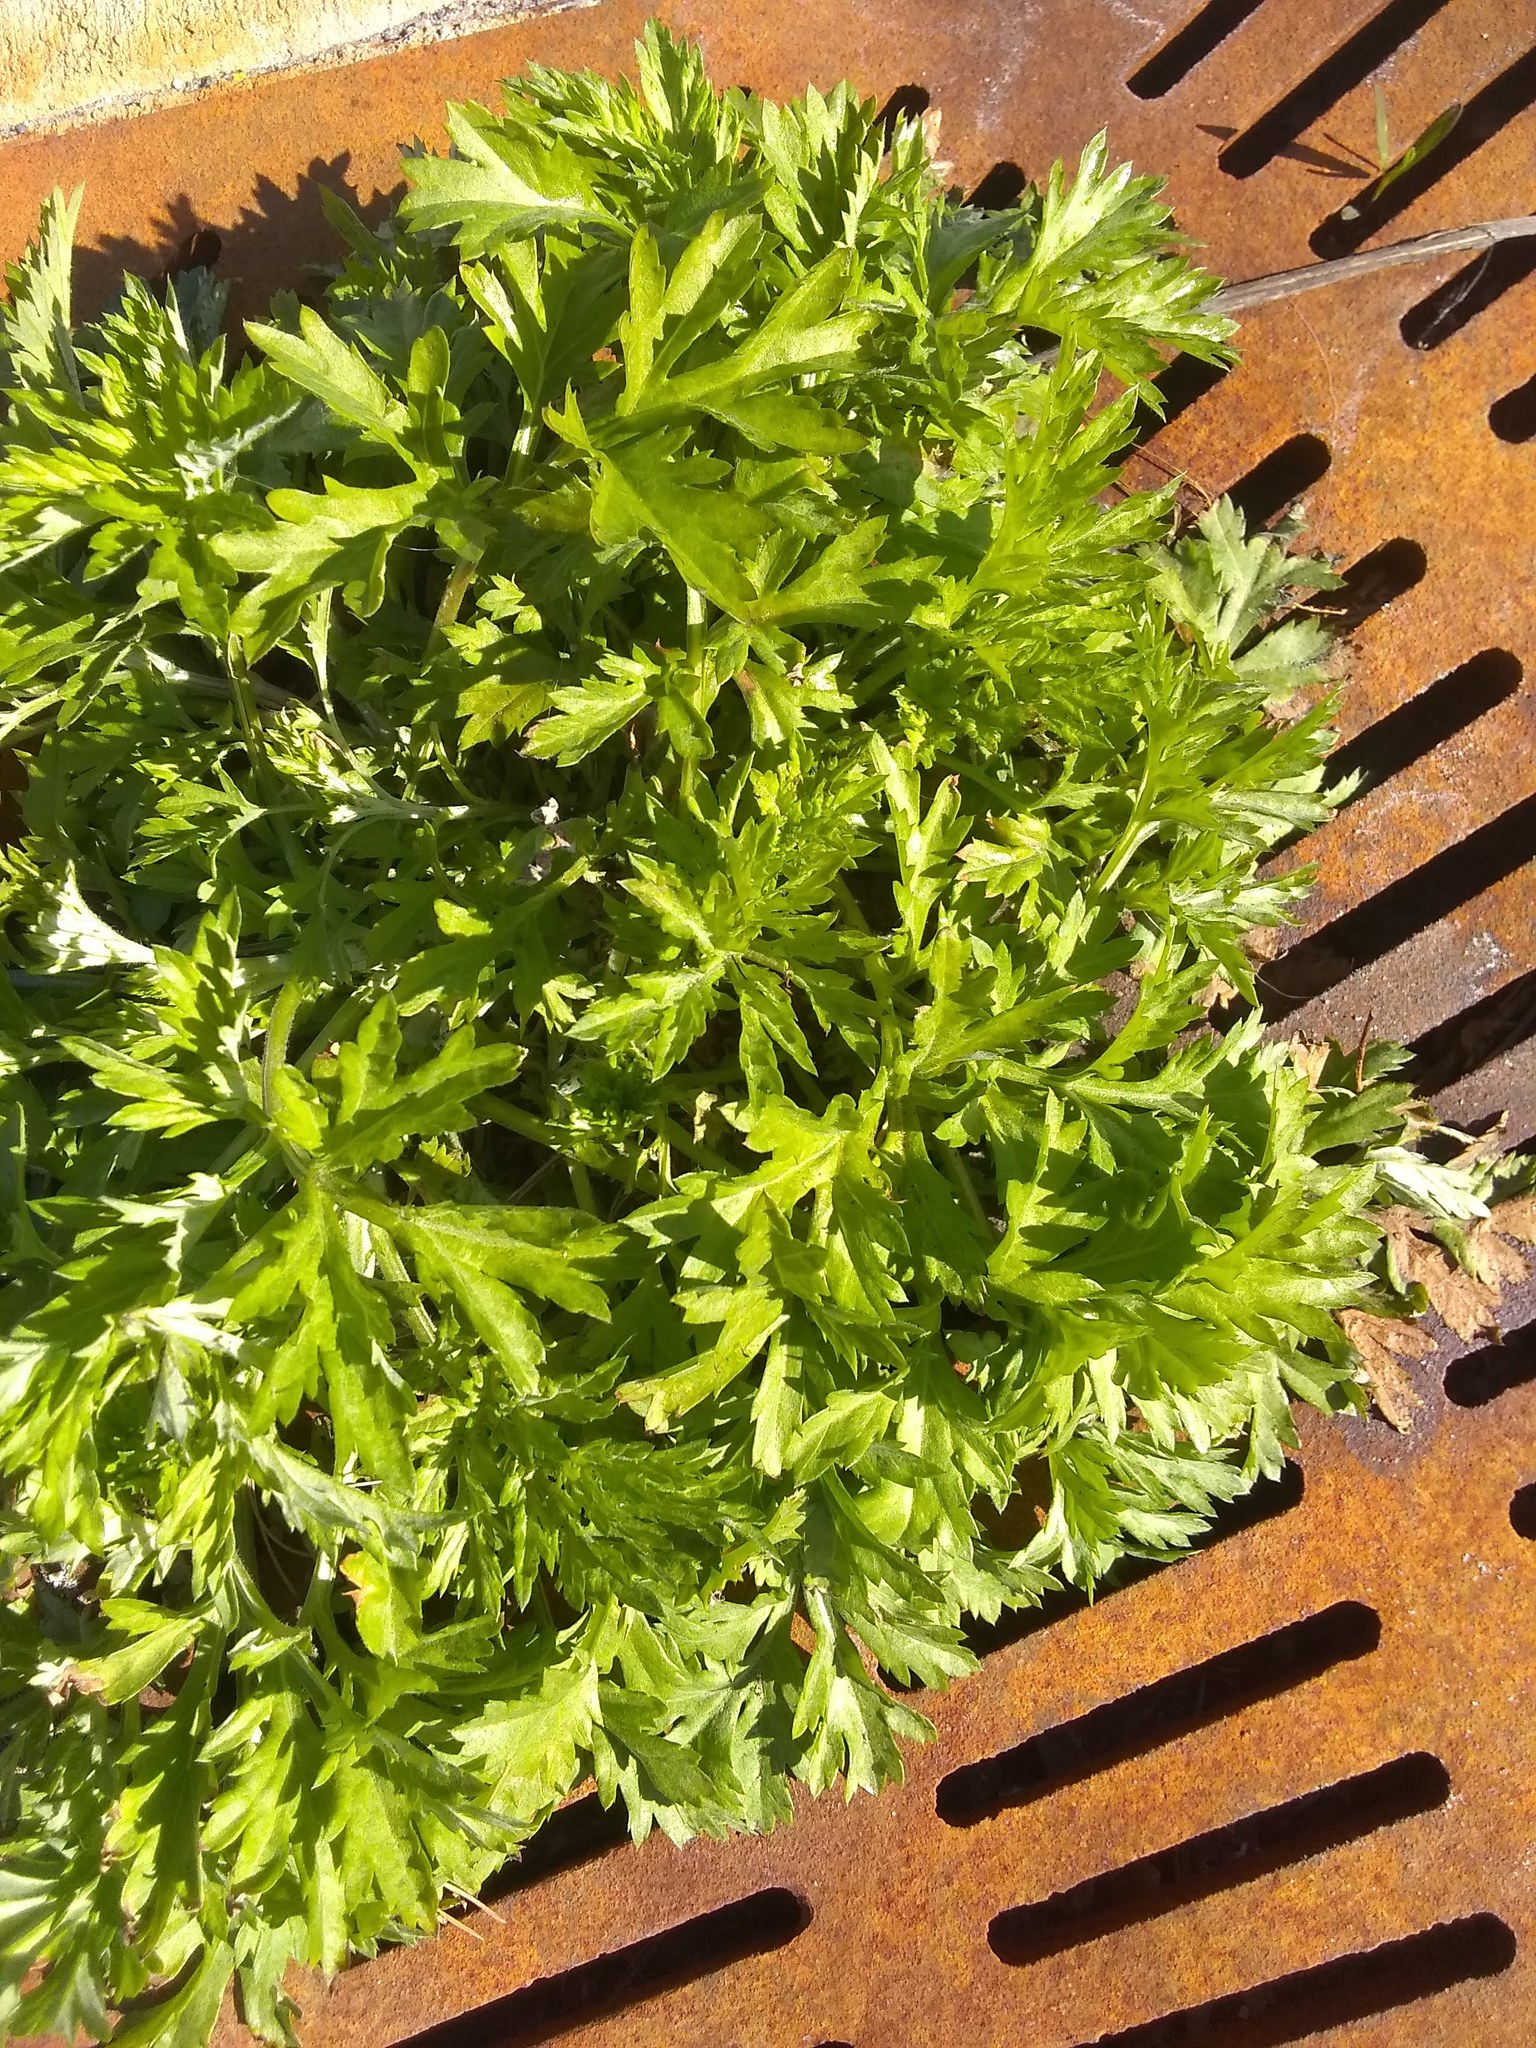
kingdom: Plantae
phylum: Tracheophyta
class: Magnoliopsida
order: Asterales
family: Asteraceae
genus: Artemisia
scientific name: Artemisia vulgaris
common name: Mugwort
